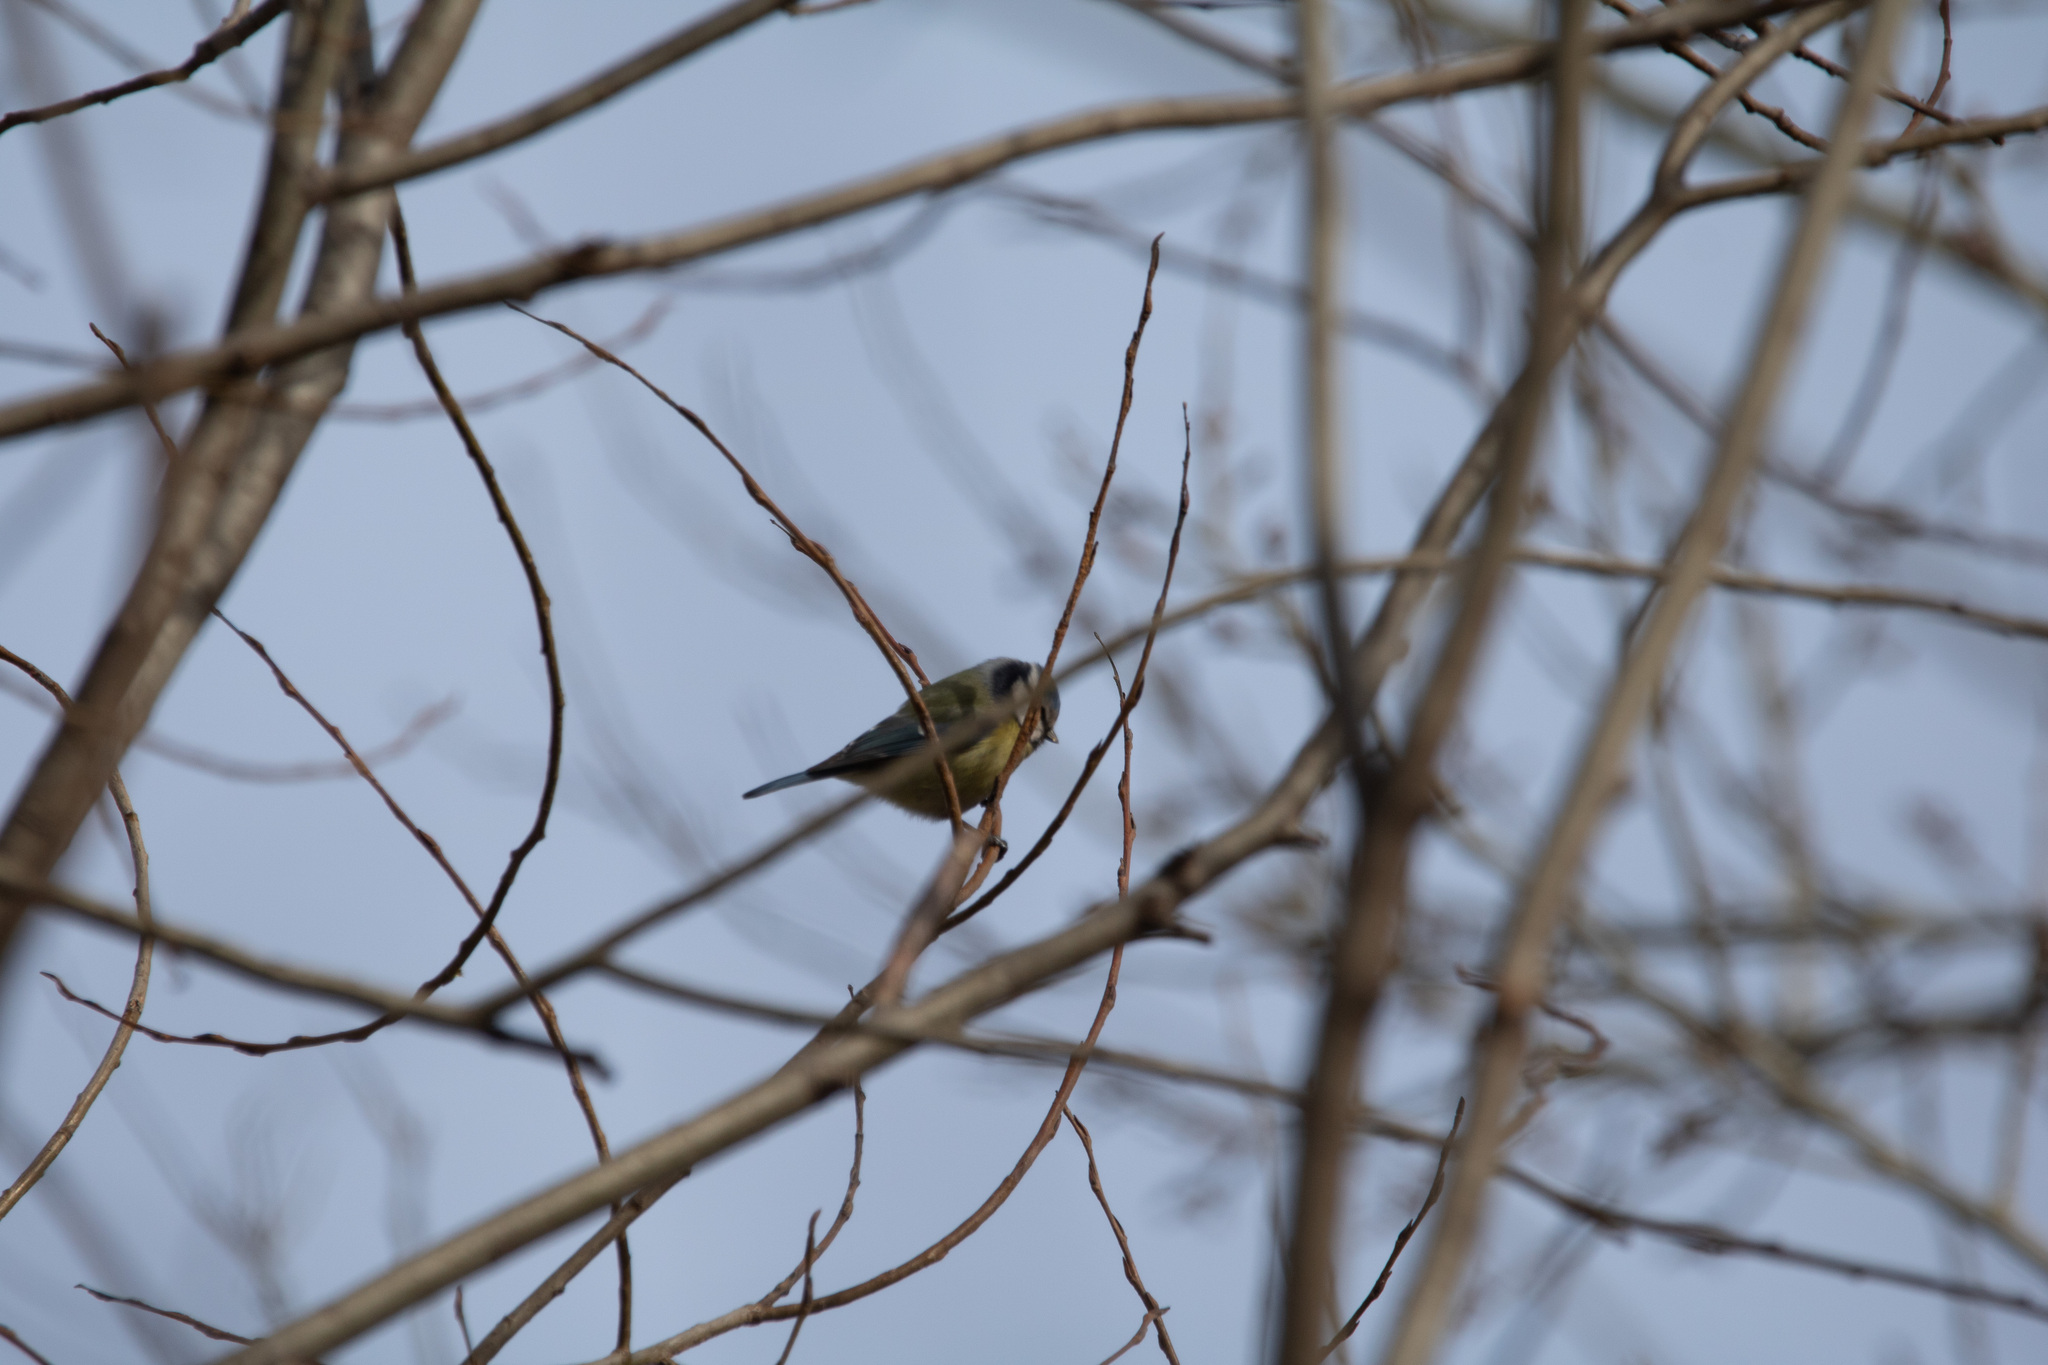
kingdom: Animalia
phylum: Chordata
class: Aves
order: Passeriformes
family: Paridae
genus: Cyanistes
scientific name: Cyanistes caeruleus
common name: Eurasian blue tit
